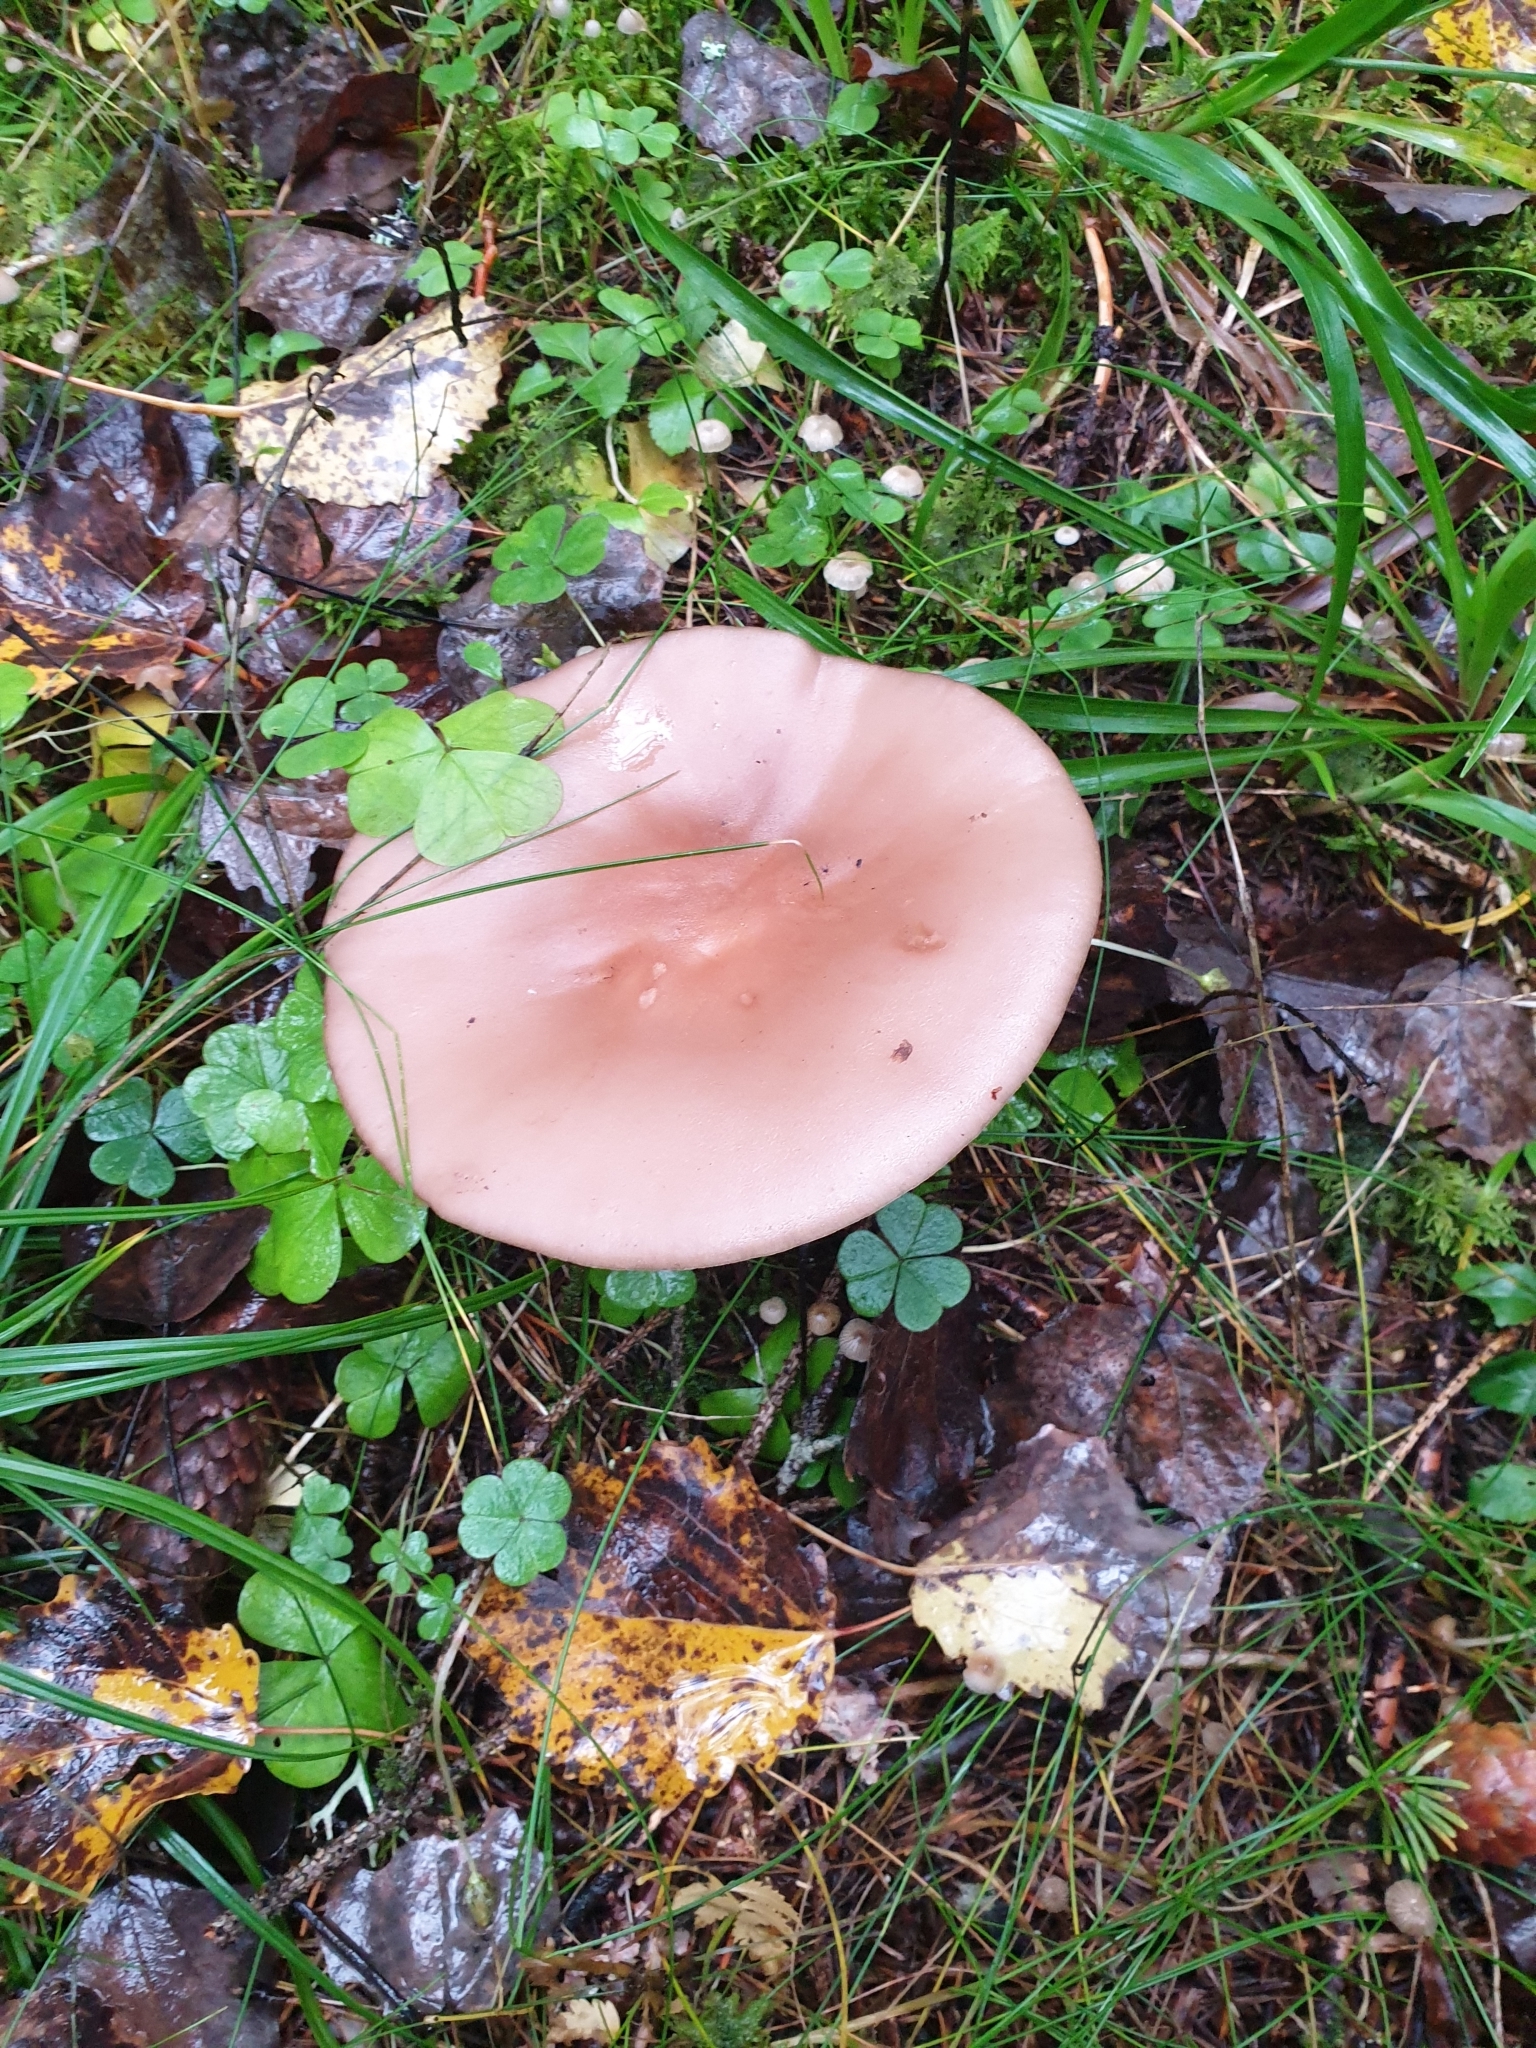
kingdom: Fungi
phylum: Basidiomycota
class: Agaricomycetes
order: Agaricales
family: Tricholomataceae
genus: Collybia
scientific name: Collybia
